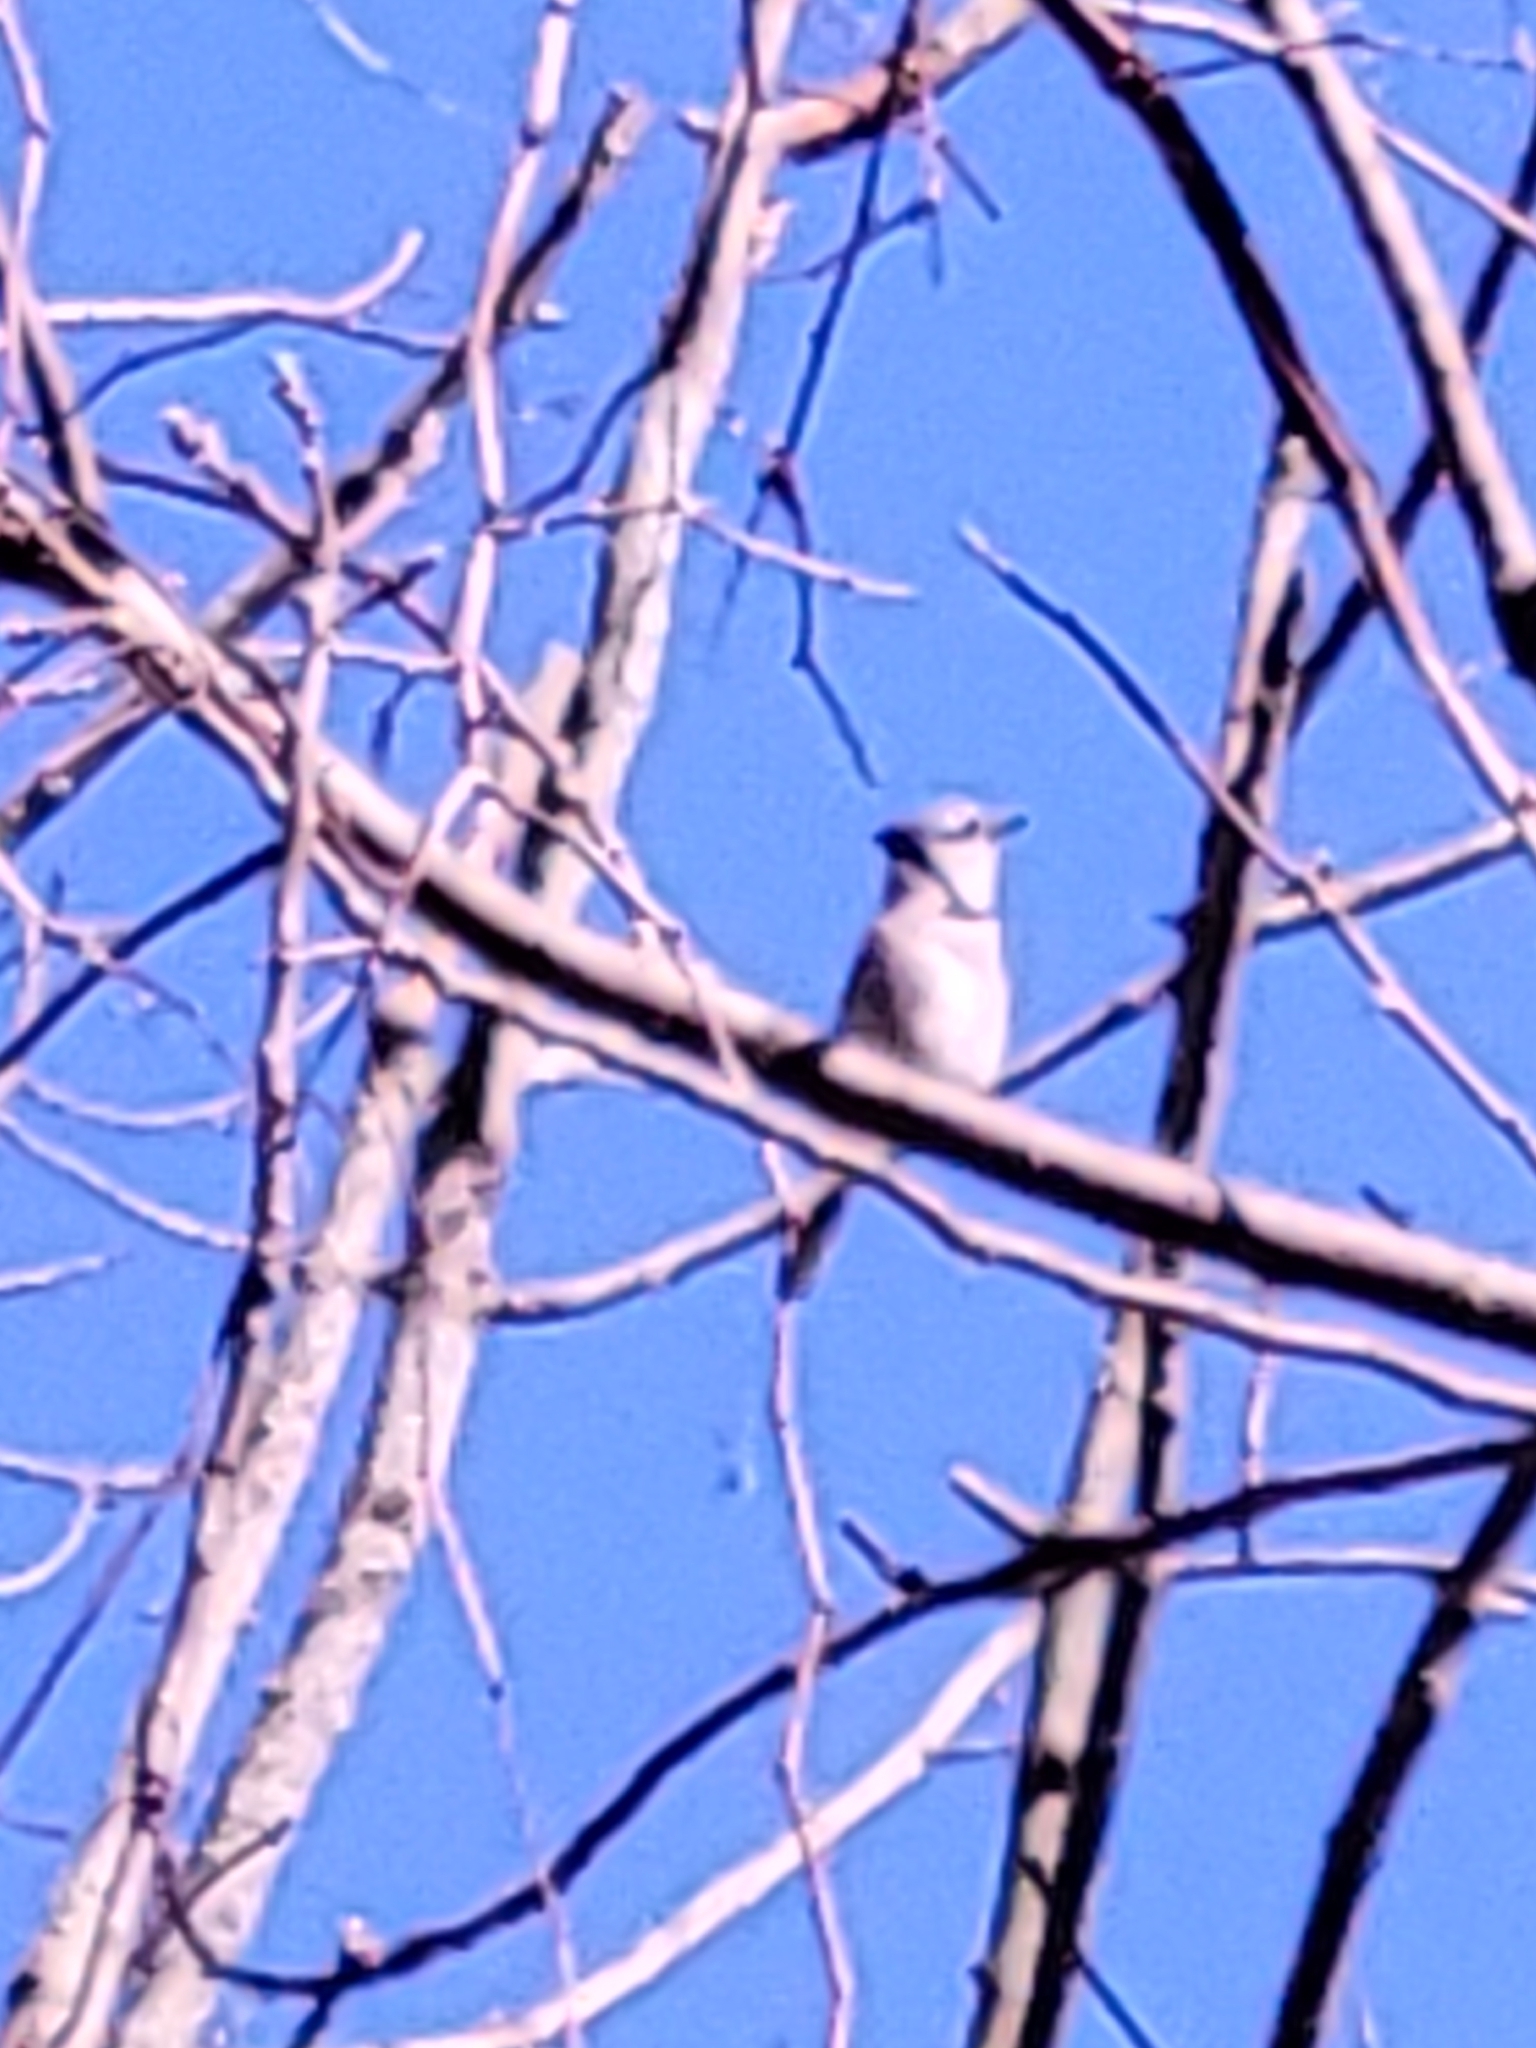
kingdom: Animalia
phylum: Chordata
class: Aves
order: Passeriformes
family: Corvidae
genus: Cyanocitta
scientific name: Cyanocitta cristata
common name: Blue jay
